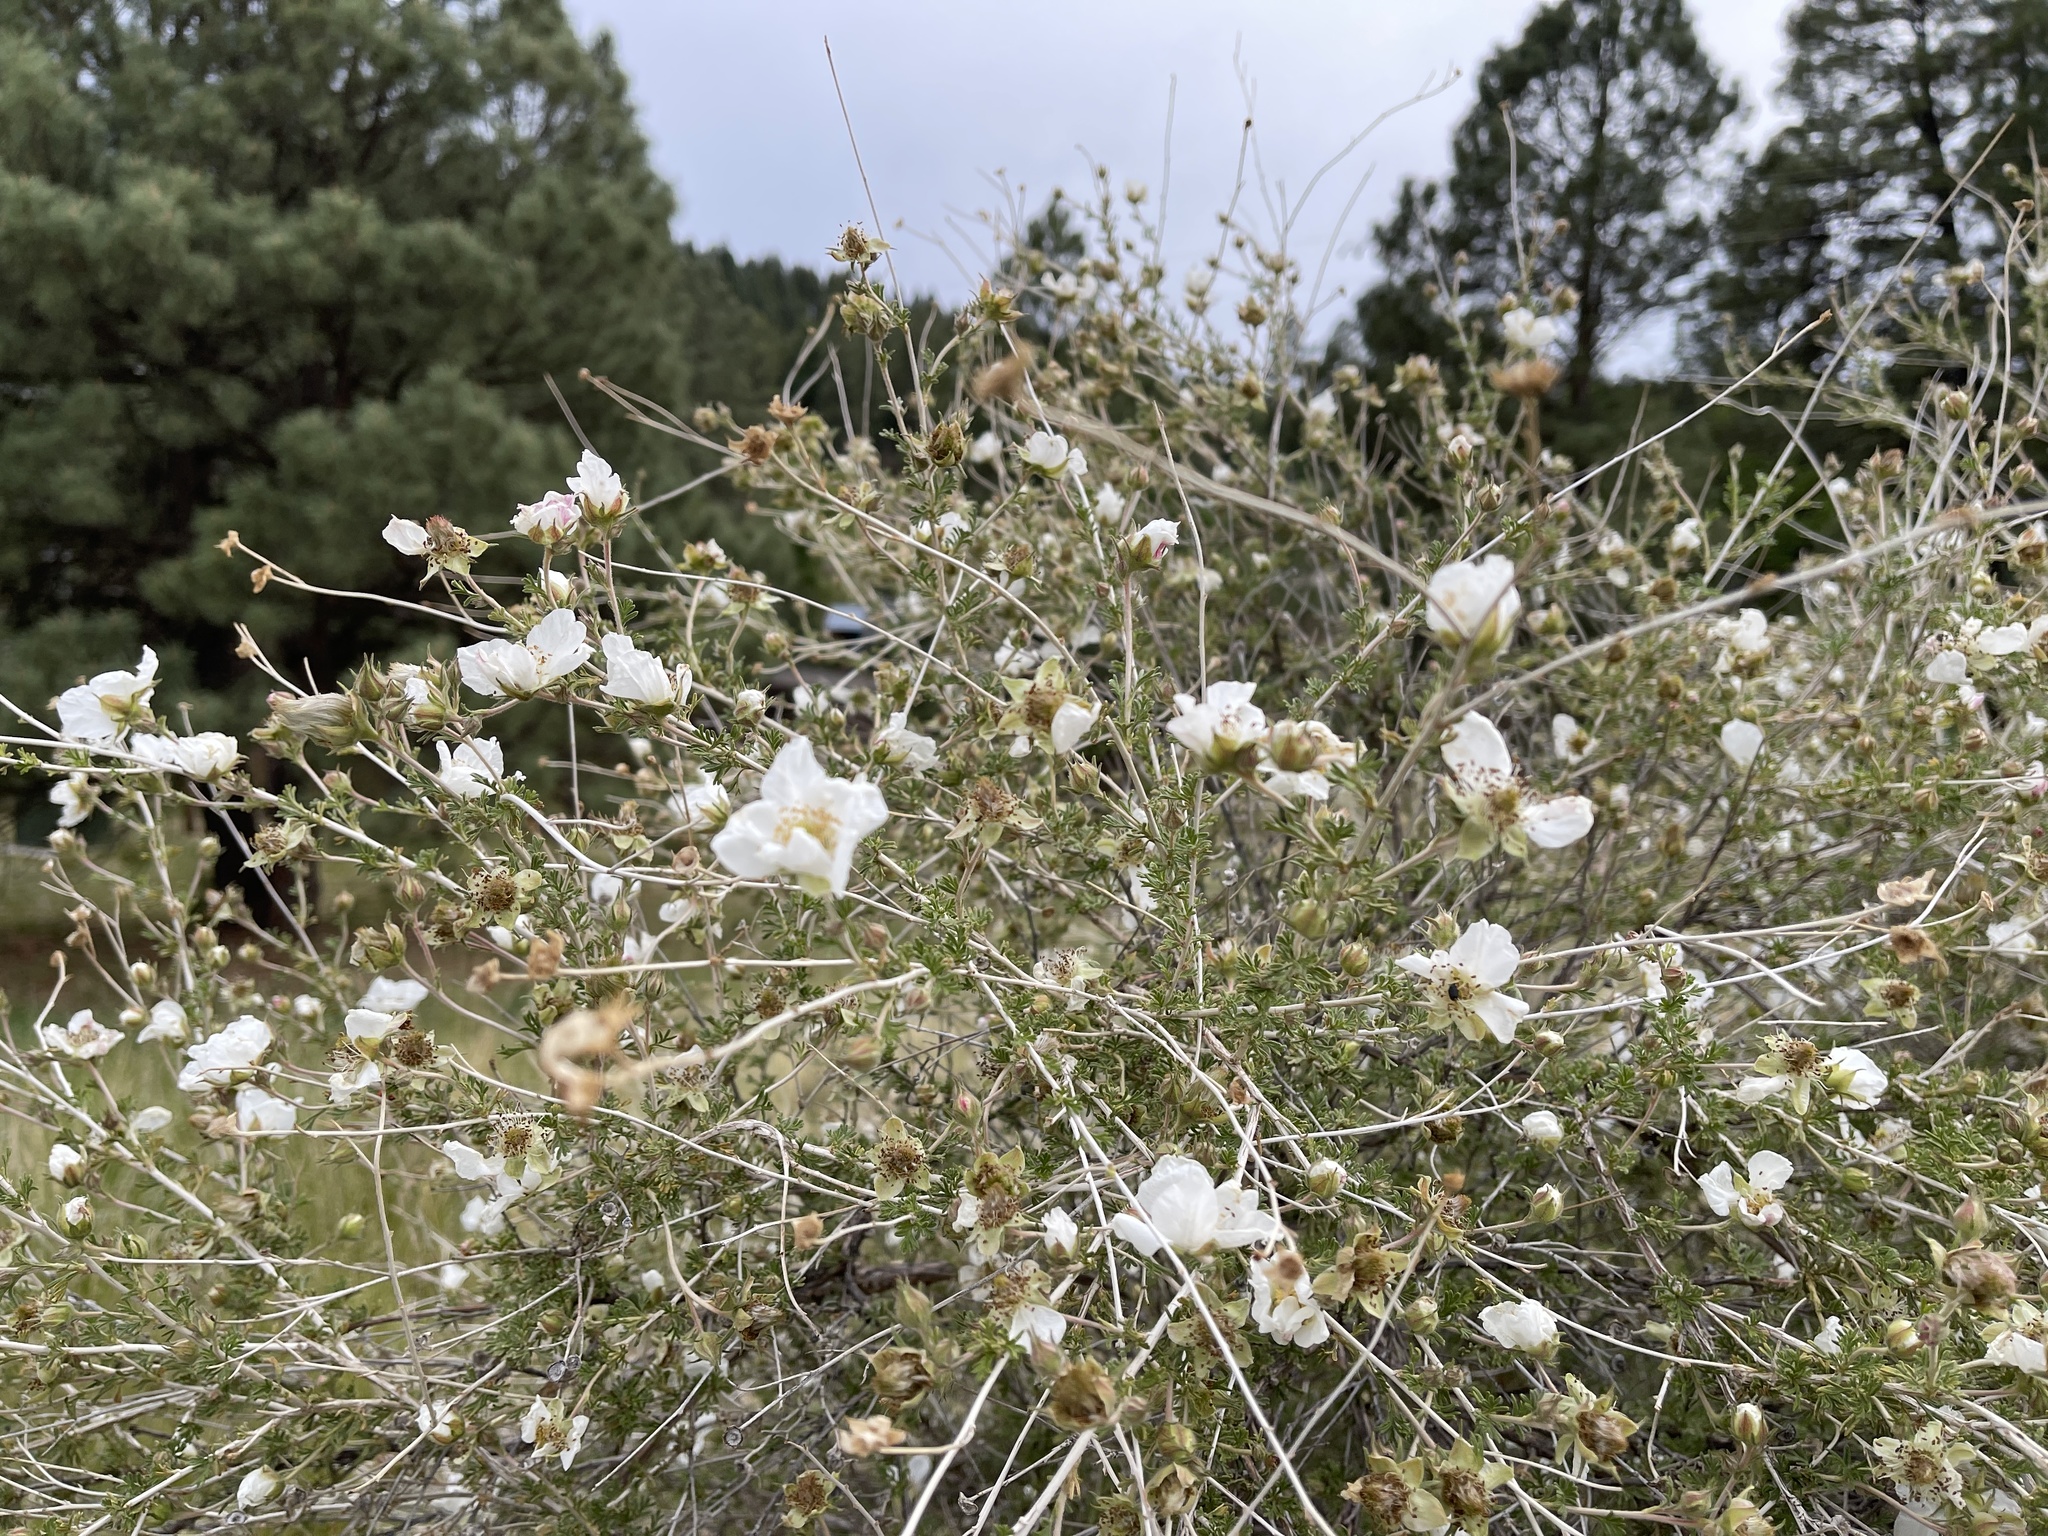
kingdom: Plantae
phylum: Tracheophyta
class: Magnoliopsida
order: Rosales
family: Rosaceae
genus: Fallugia
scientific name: Fallugia paradoxa
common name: Apache-plume
